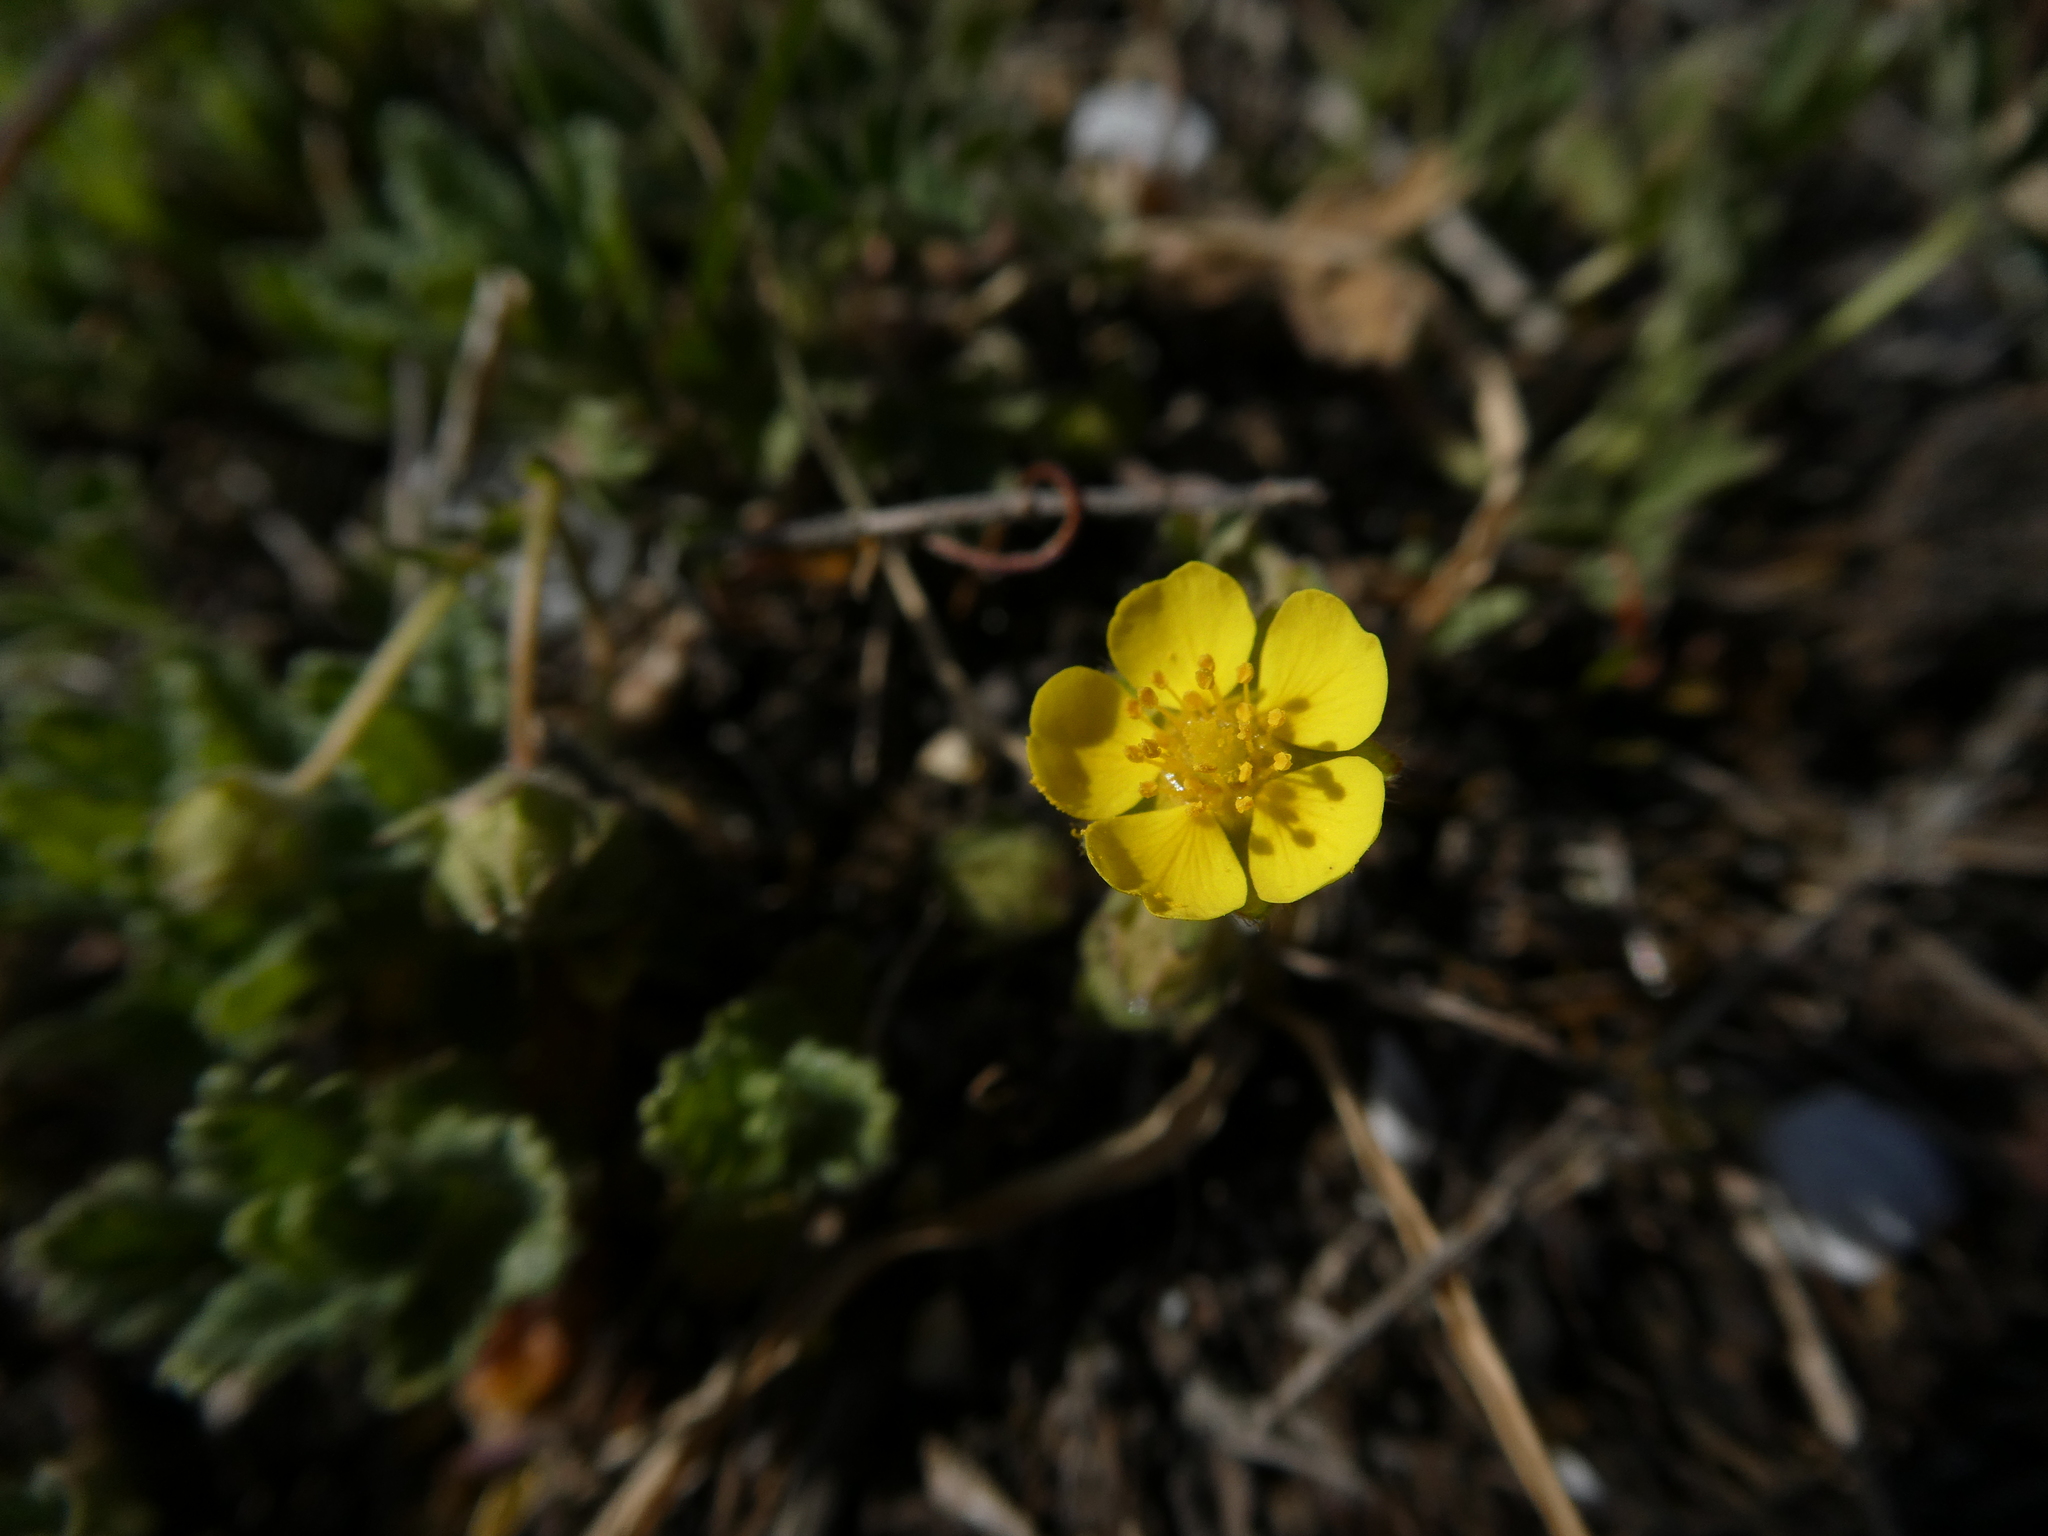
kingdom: Plantae
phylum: Tracheophyta
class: Magnoliopsida
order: Rosales
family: Rosaceae
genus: Potentilla
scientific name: Potentilla incana
